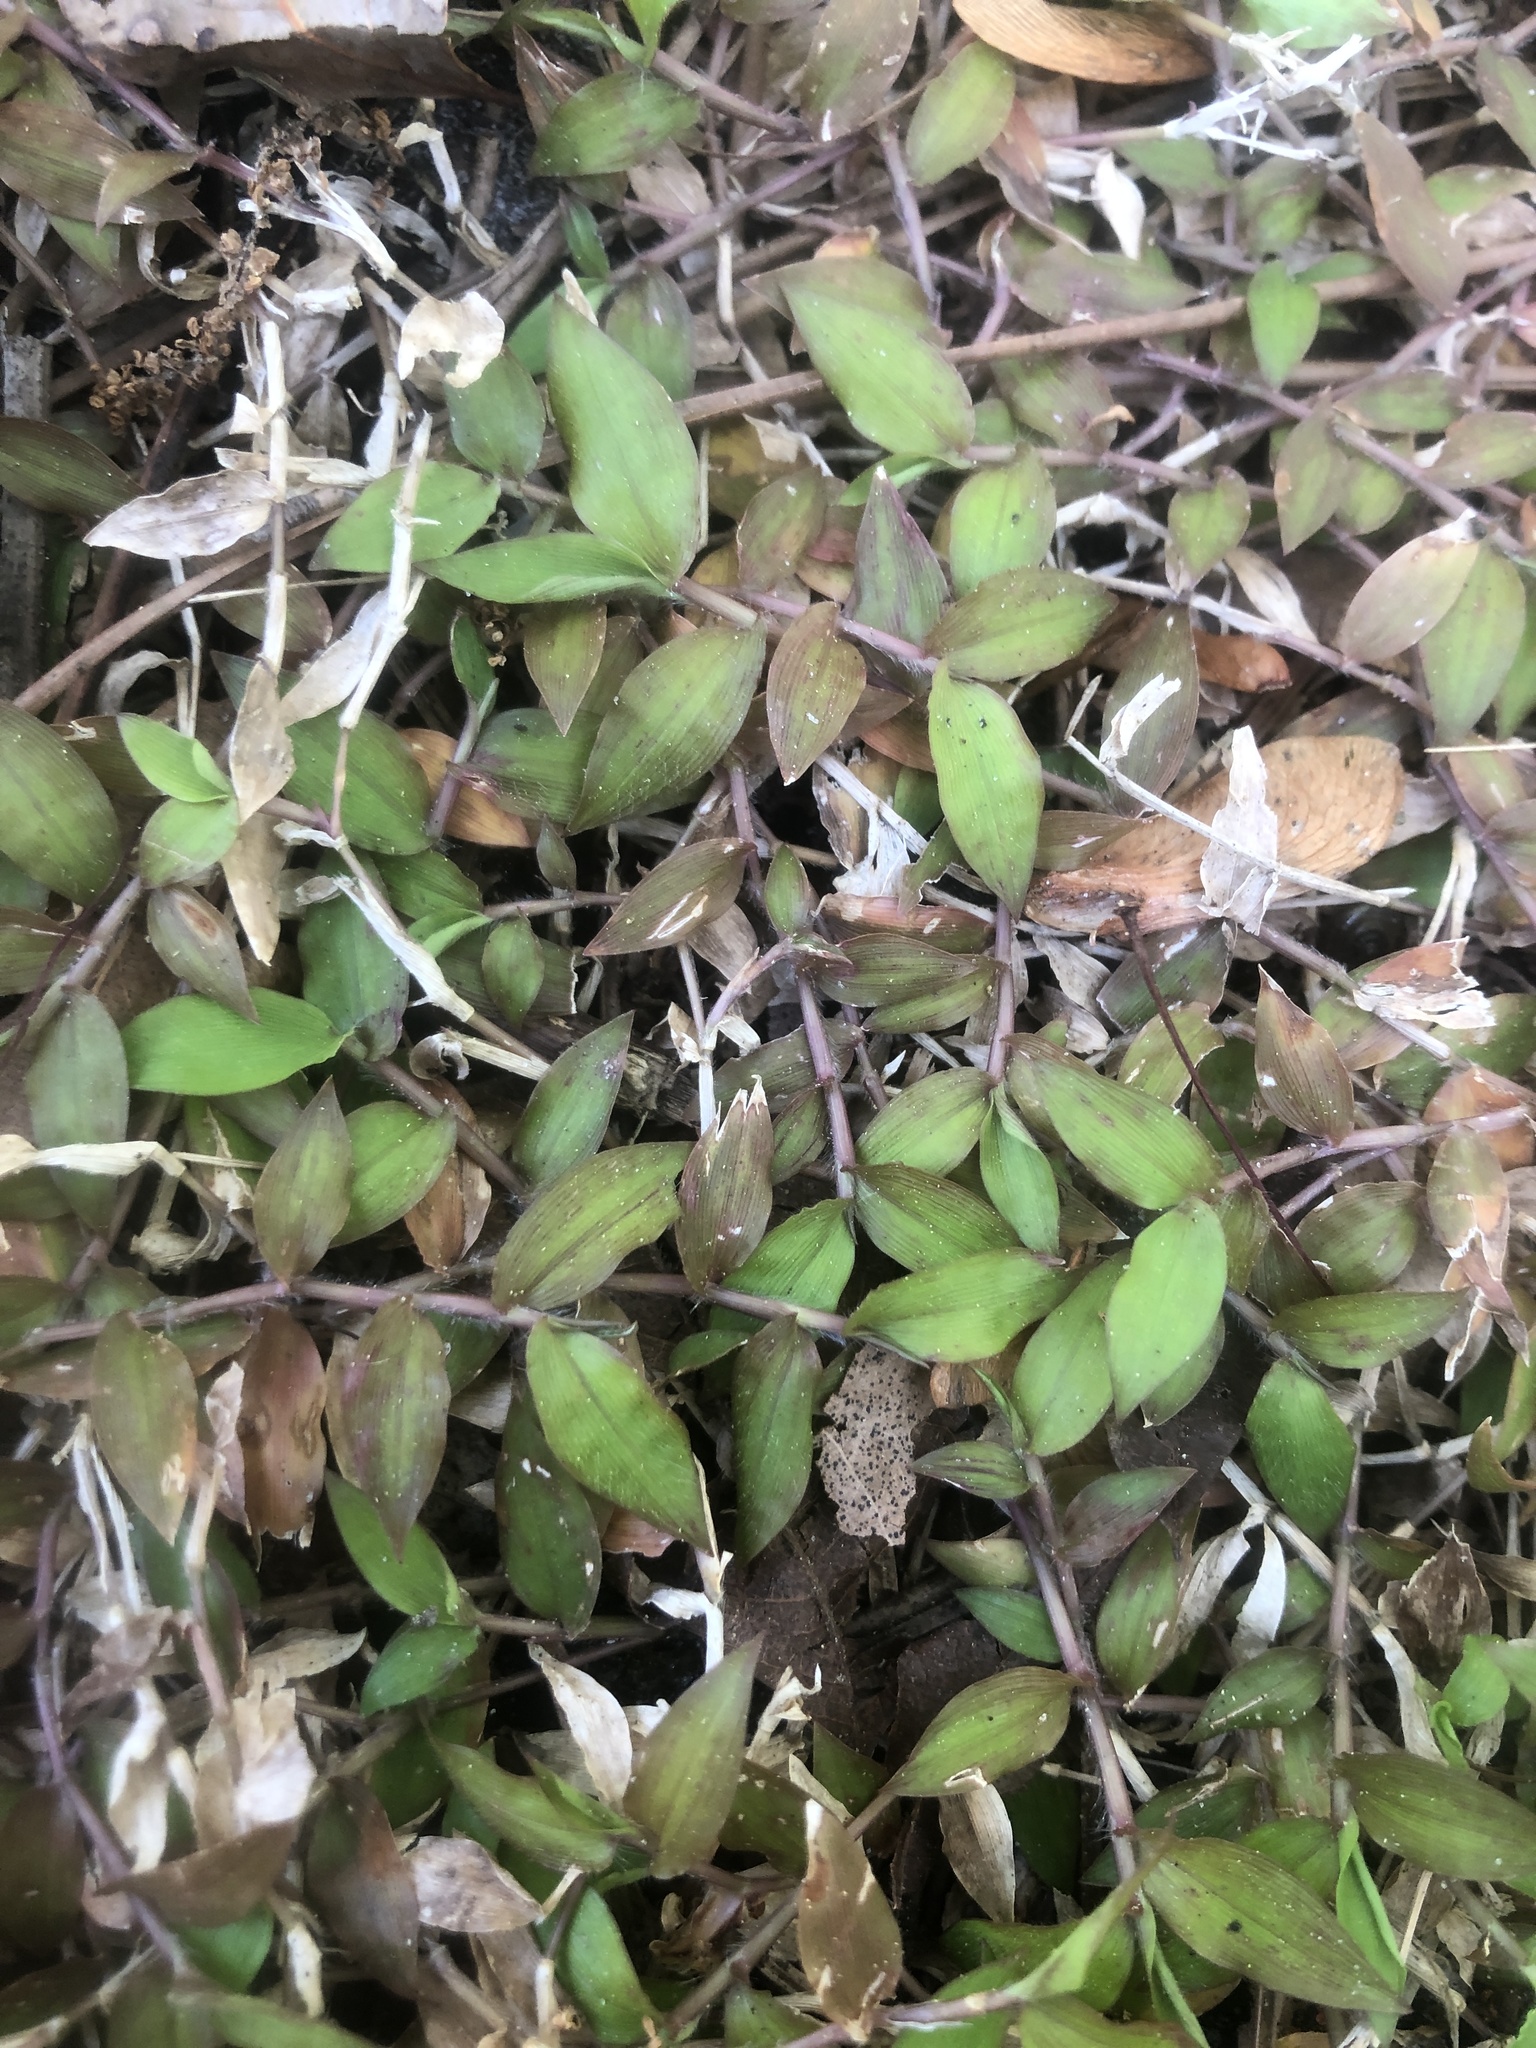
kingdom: Plantae
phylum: Tracheophyta
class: Liliopsida
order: Commelinales
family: Commelinaceae
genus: Commelina
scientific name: Commelina diffusa
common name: Climbing dayflower
